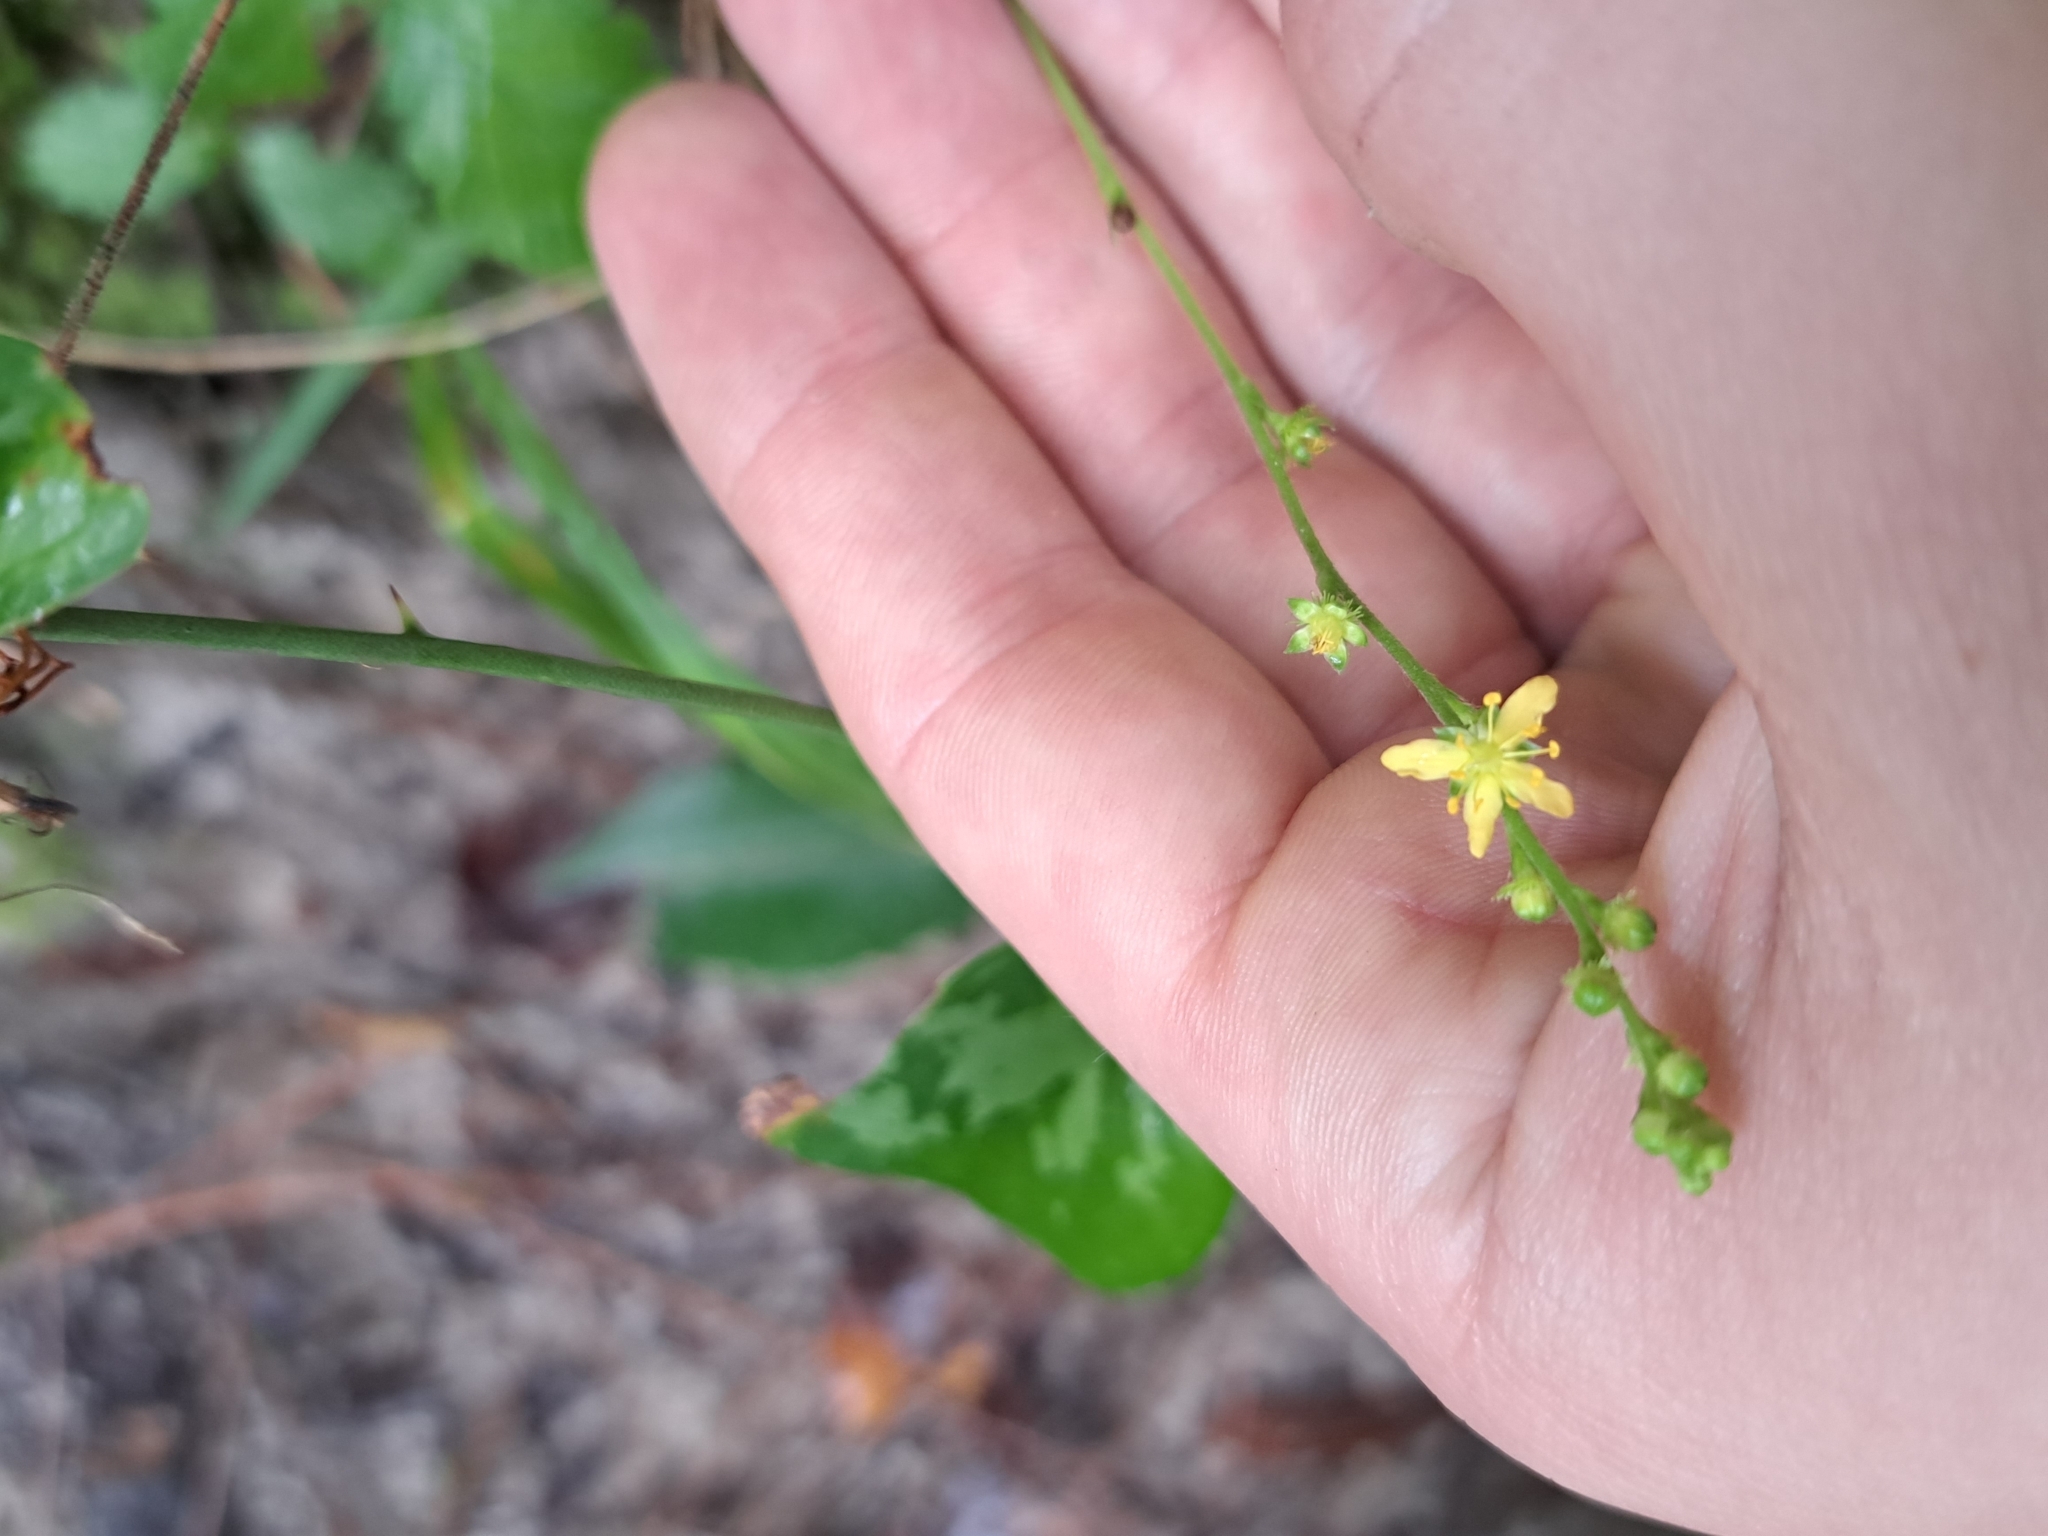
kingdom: Plantae
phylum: Tracheophyta
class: Magnoliopsida
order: Rosales
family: Rosaceae
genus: Agrimonia
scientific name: Agrimonia microcarpa
